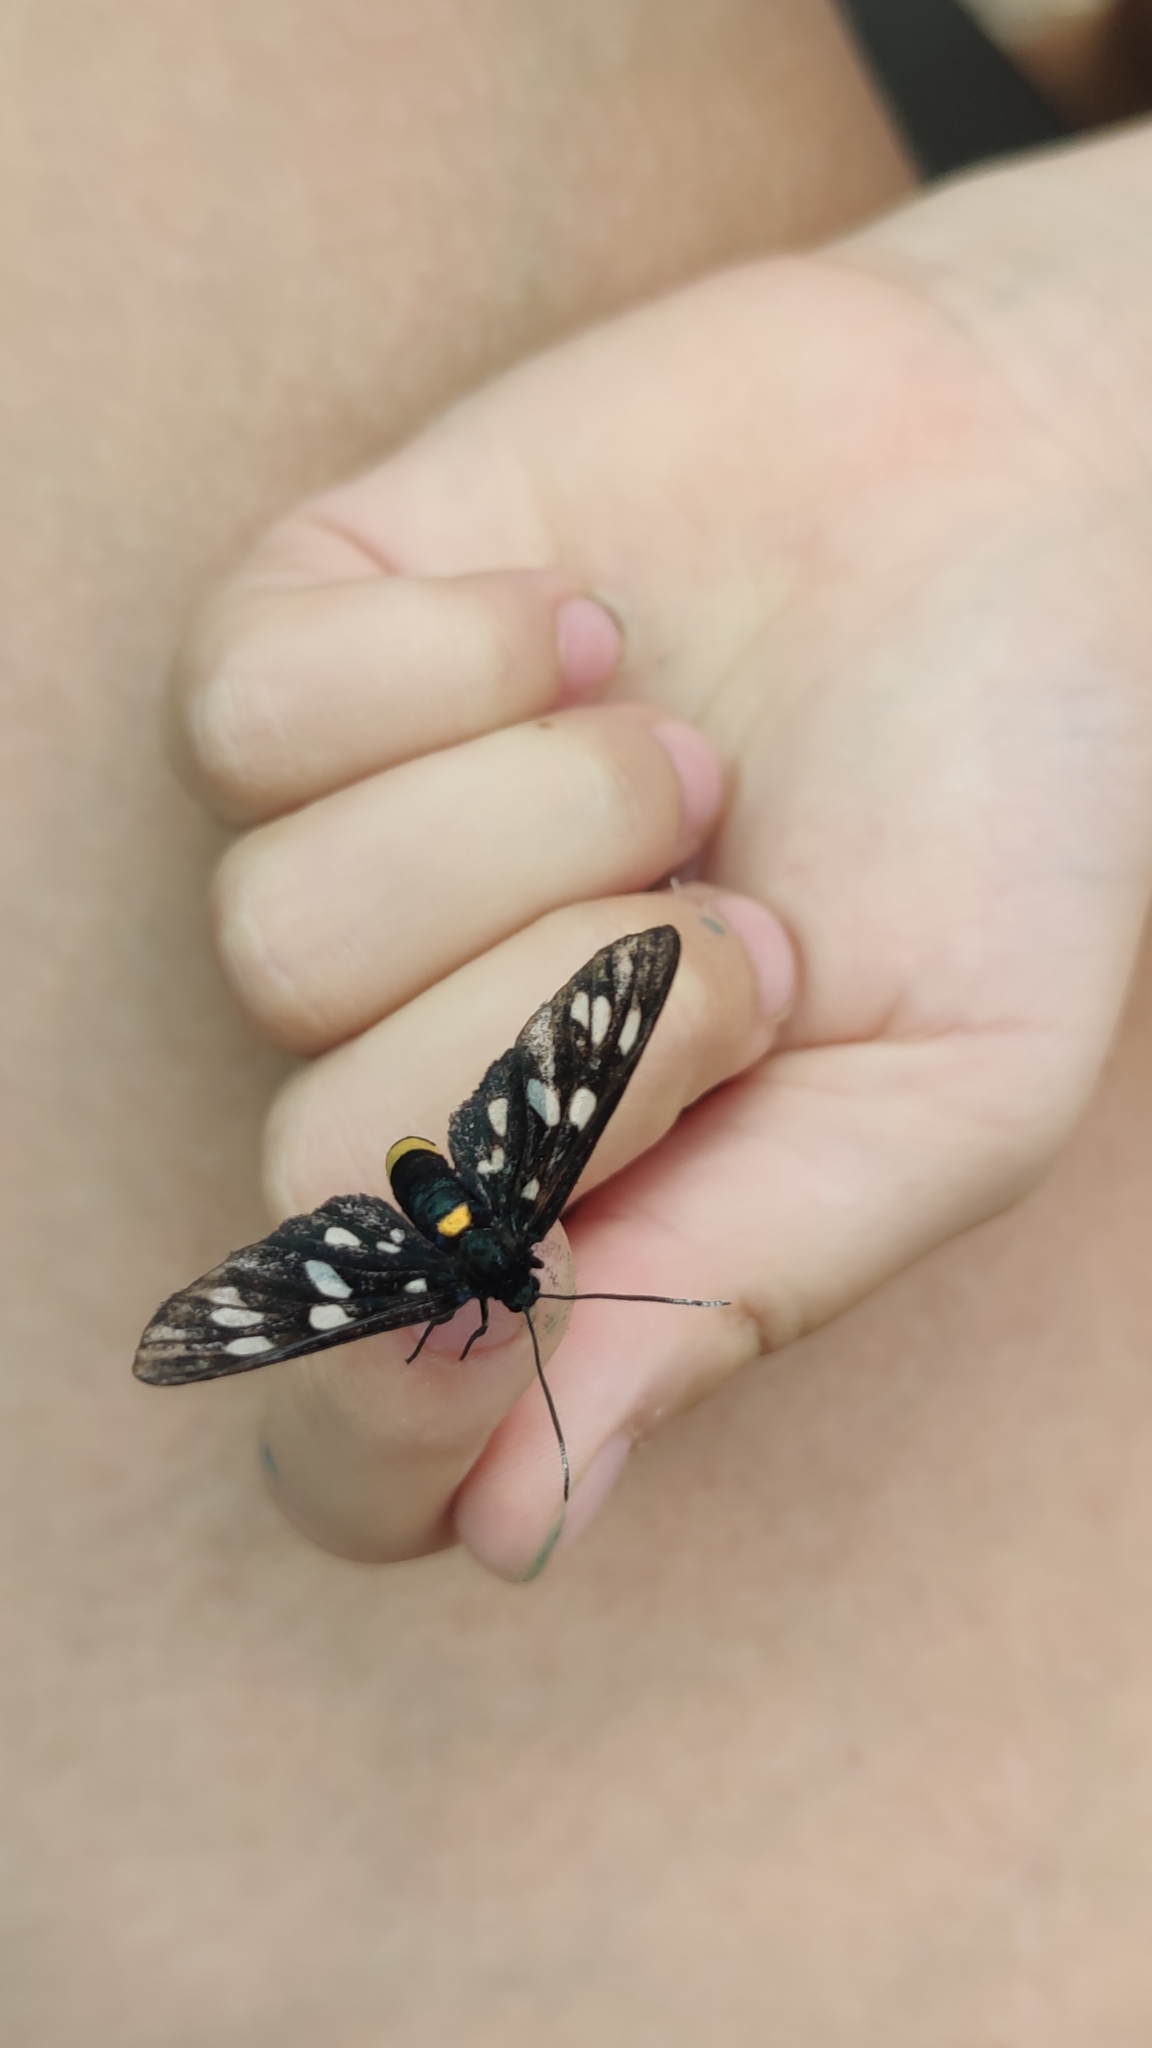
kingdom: Animalia
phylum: Arthropoda
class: Insecta
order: Lepidoptera
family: Erebidae
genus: Amata
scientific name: Amata phegea
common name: Nine-spotted
